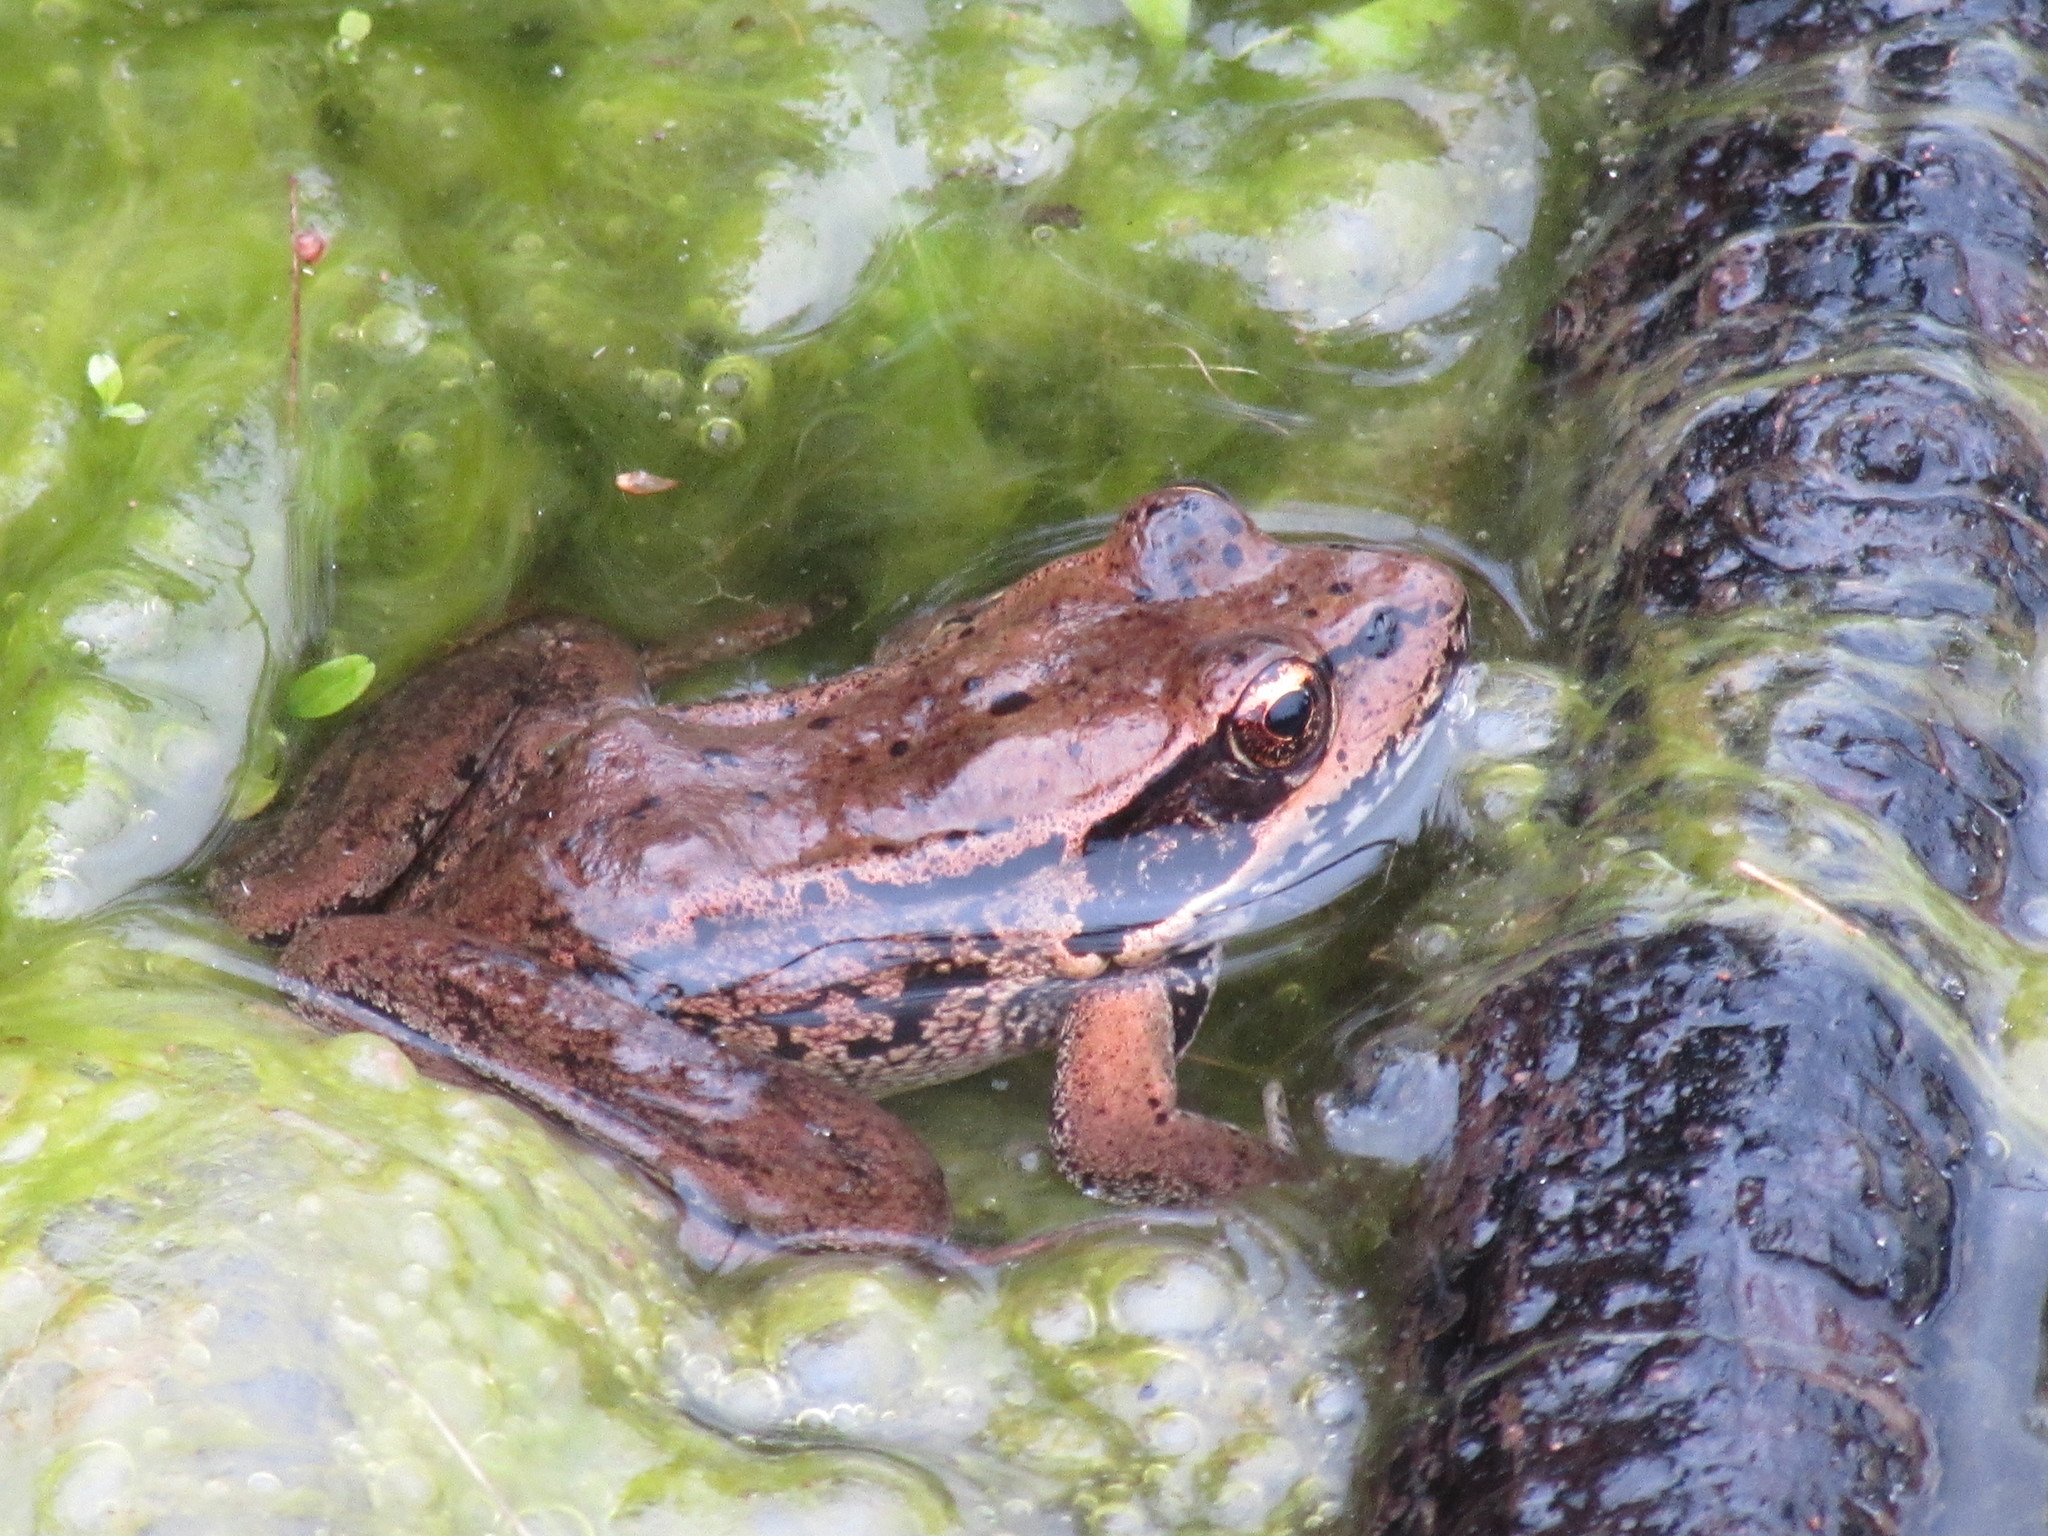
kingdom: Animalia
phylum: Chordata
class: Amphibia
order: Anura
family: Ranidae
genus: Rana
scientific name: Rana aurora
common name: Red-legged frog
